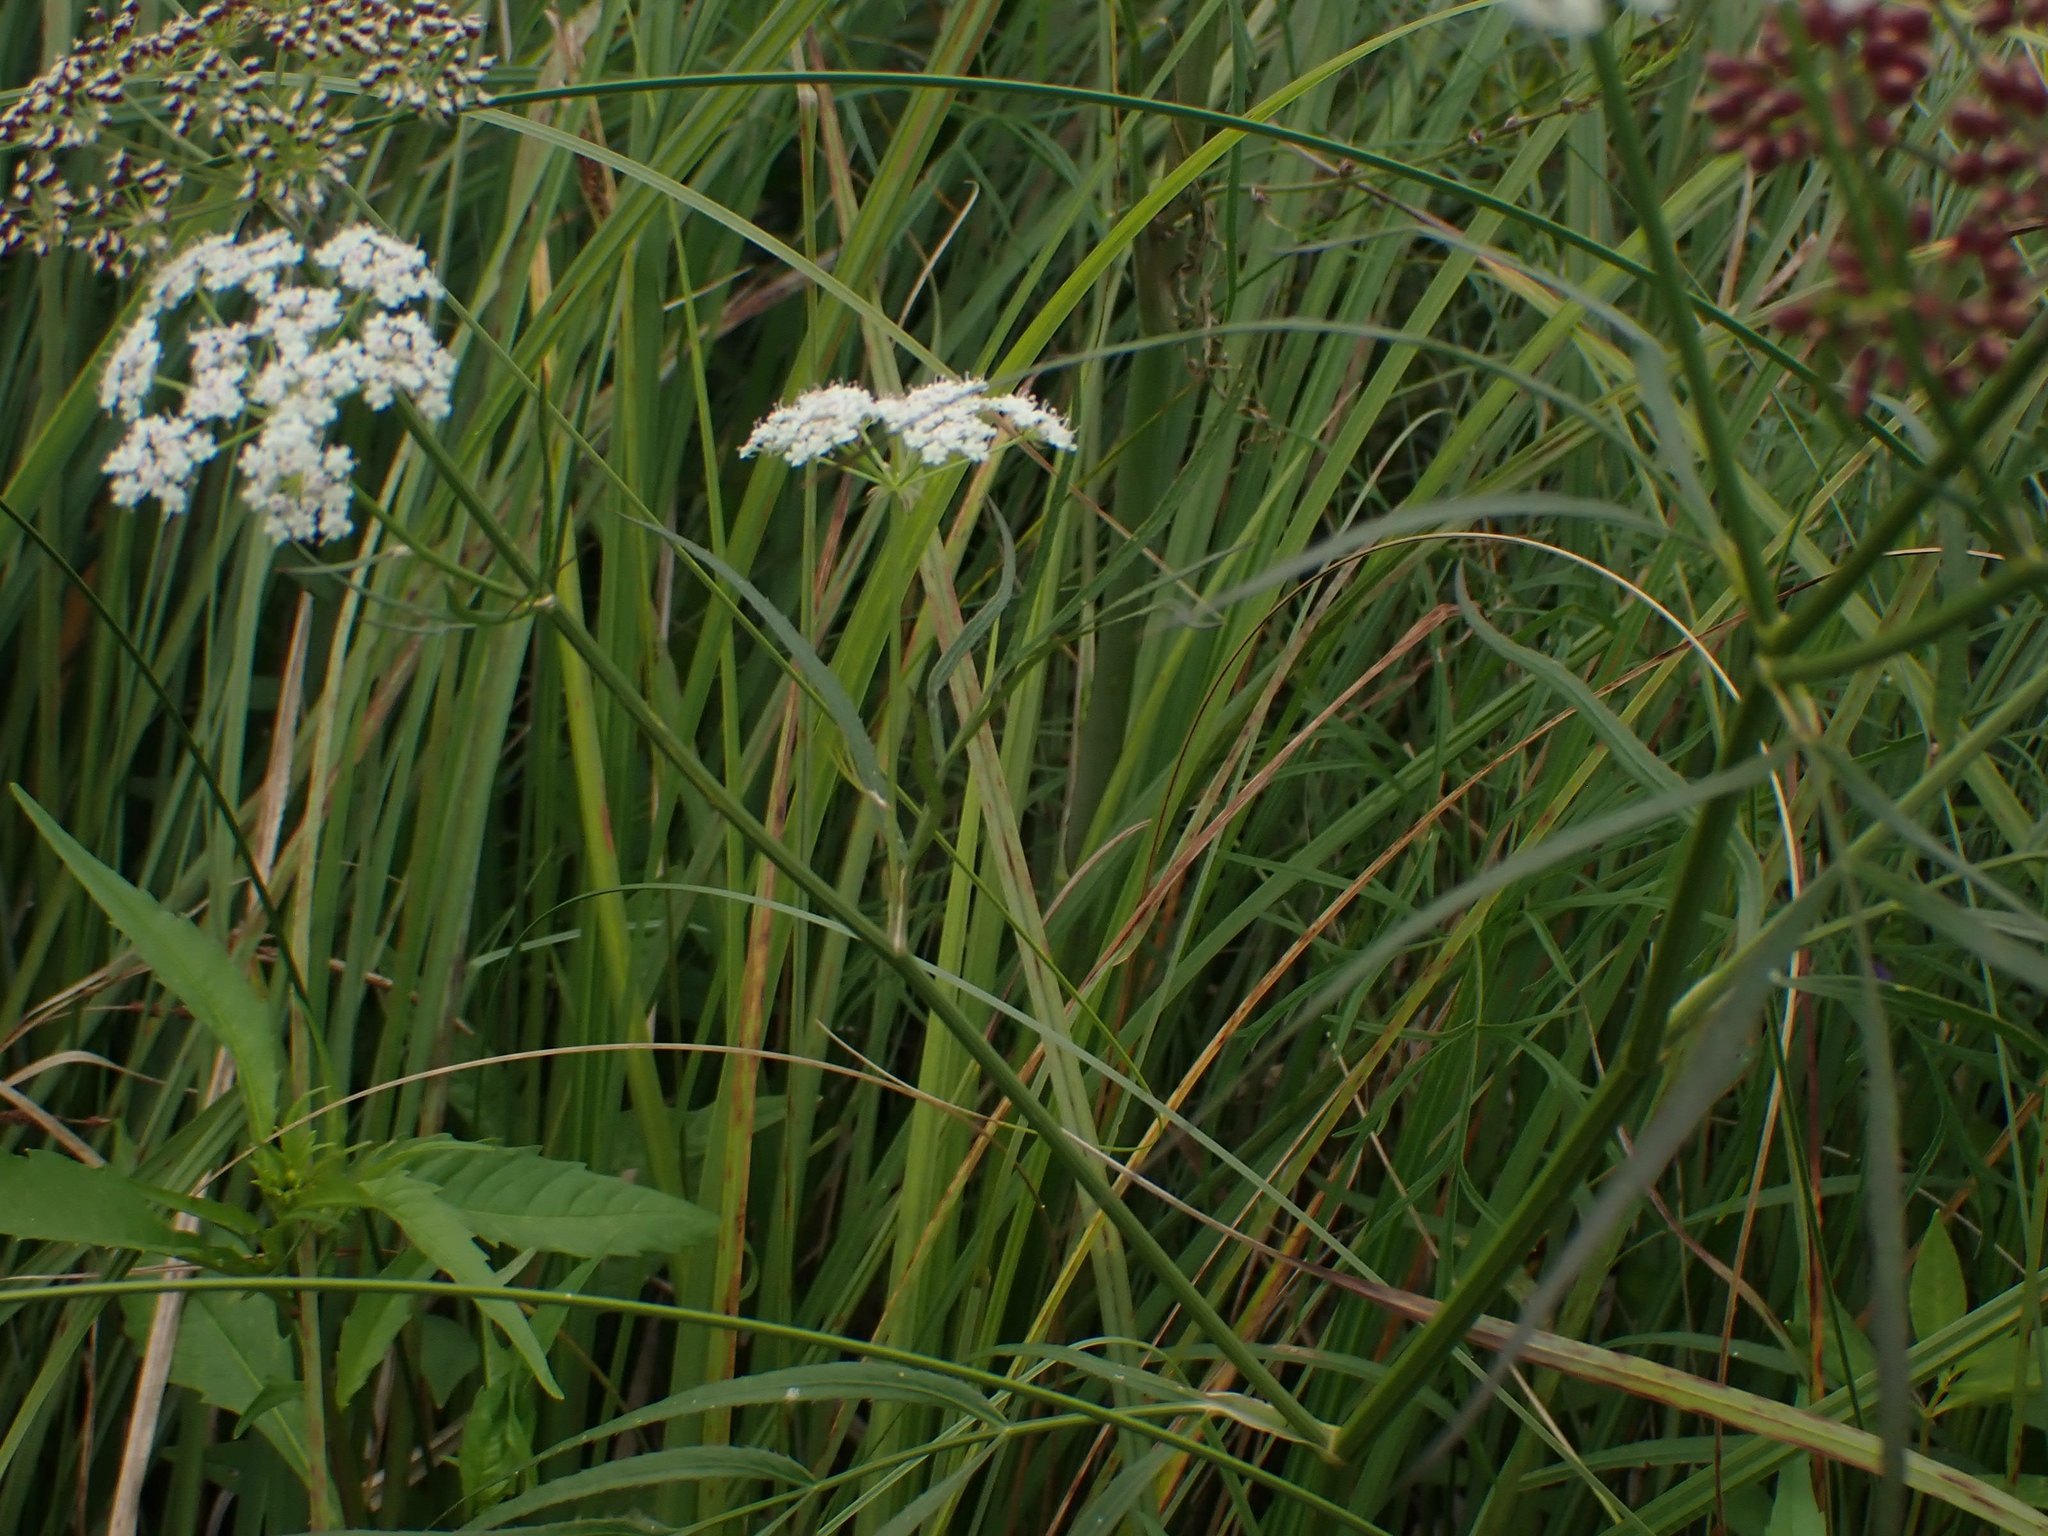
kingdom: Plantae
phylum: Tracheophyta
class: Magnoliopsida
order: Apiales
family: Apiaceae
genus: Cicuta
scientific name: Cicuta maculata
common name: Spotted cowbane
